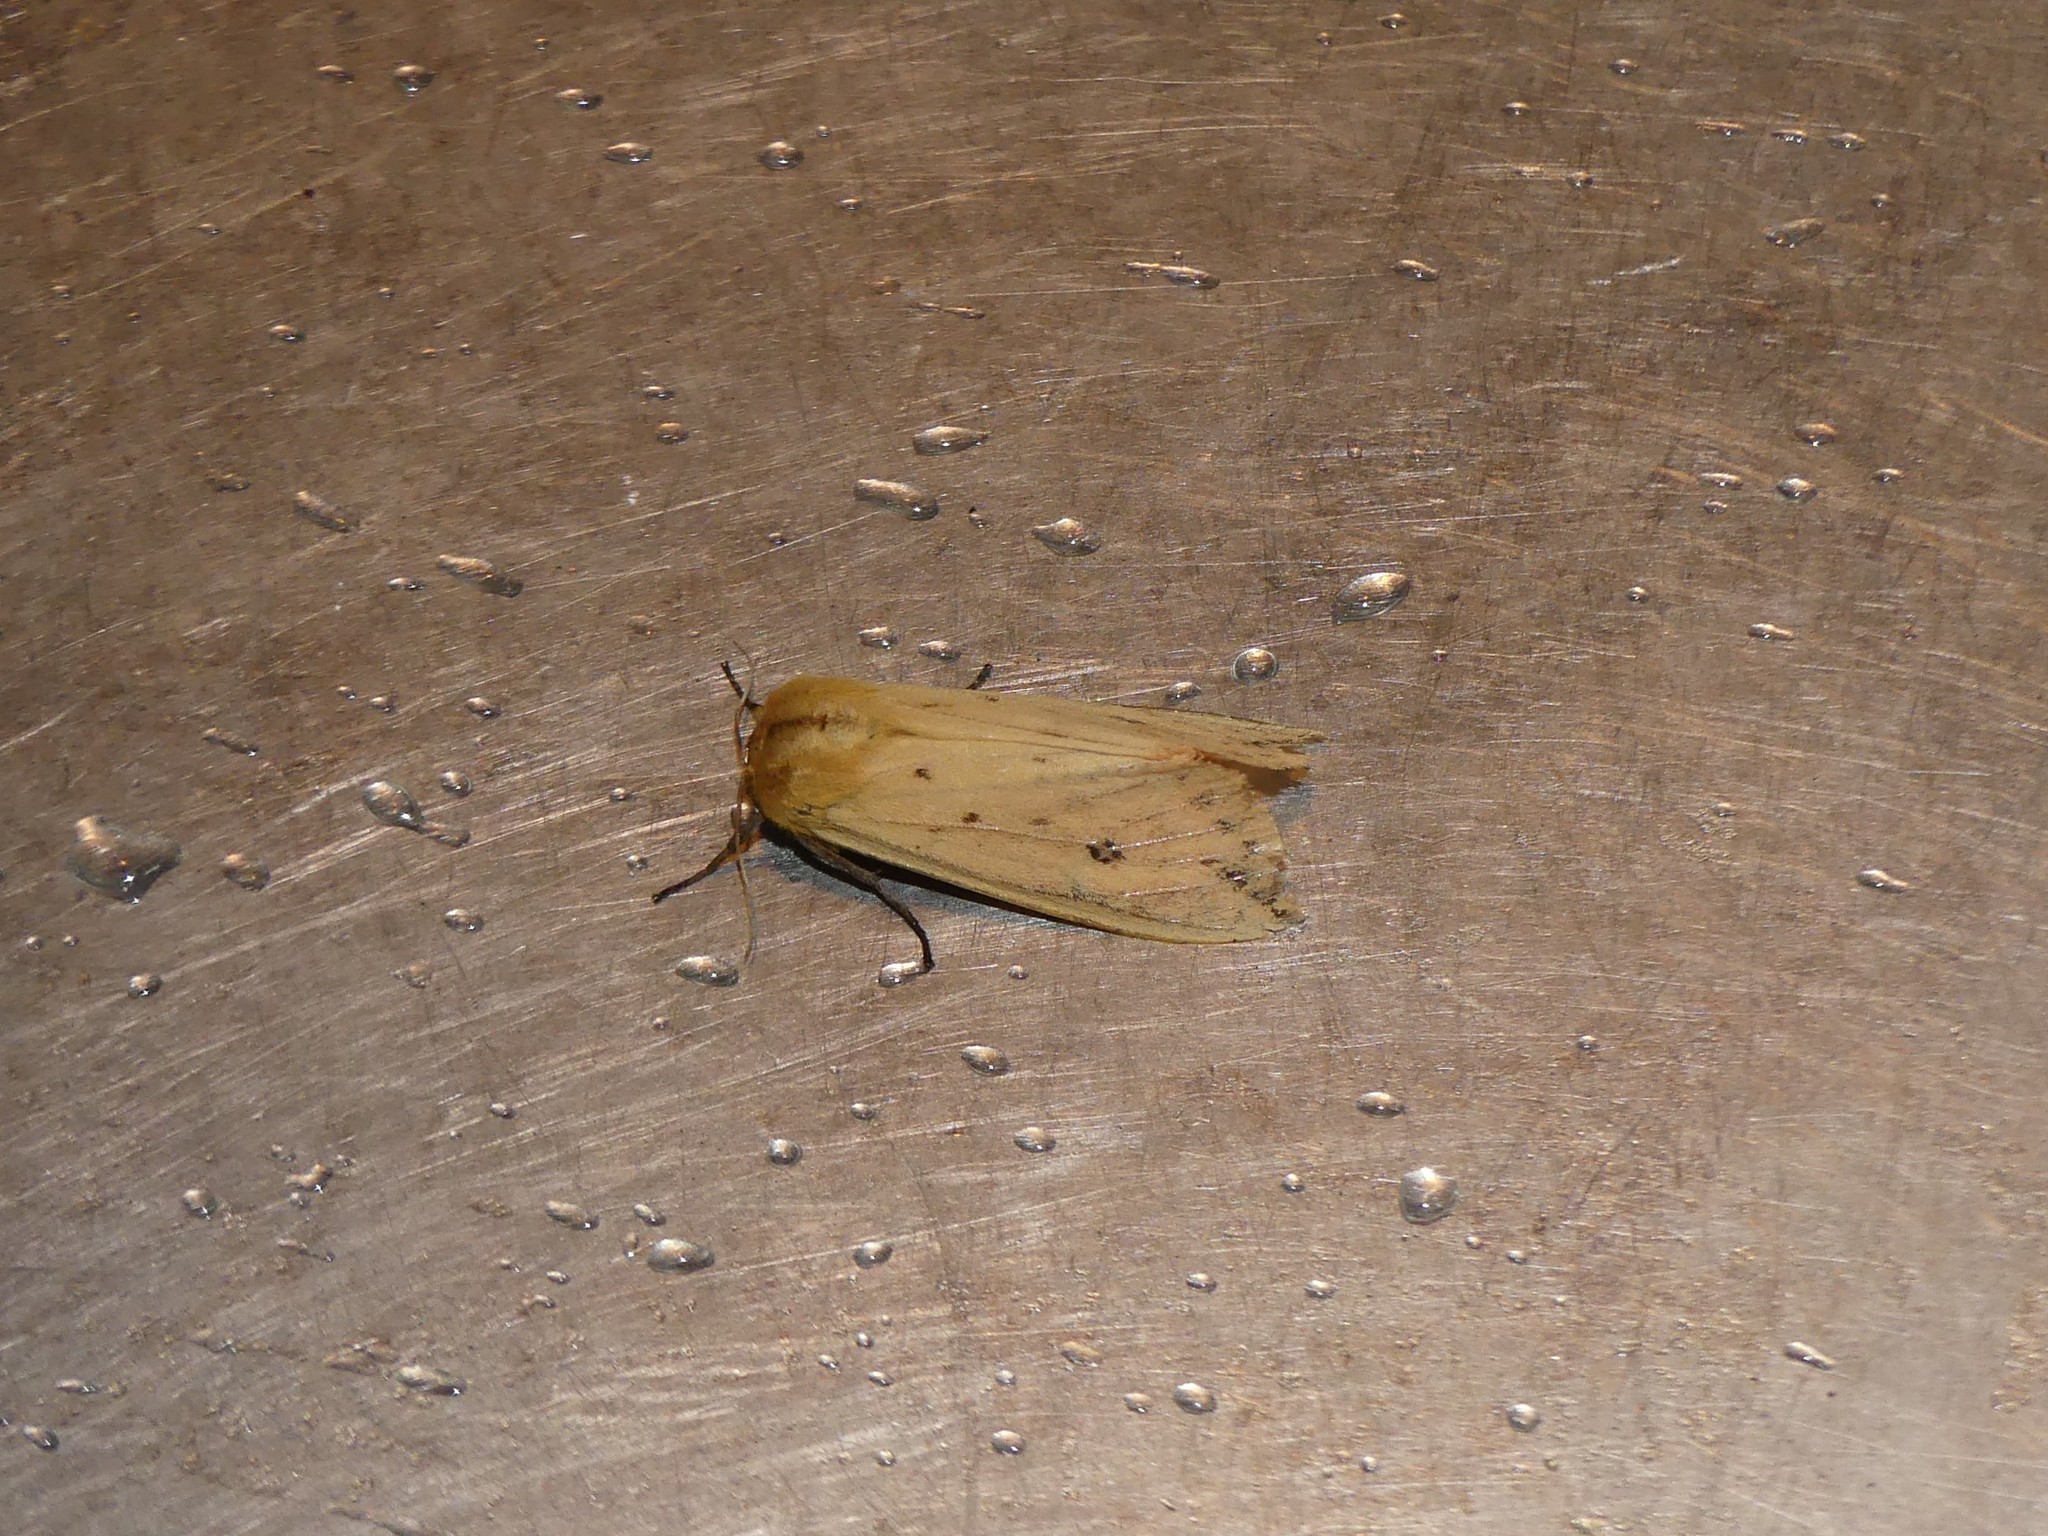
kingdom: Animalia
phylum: Arthropoda
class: Insecta
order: Lepidoptera
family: Erebidae
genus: Pyrrharctia
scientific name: Pyrrharctia isabella
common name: Isabella tiger moth
